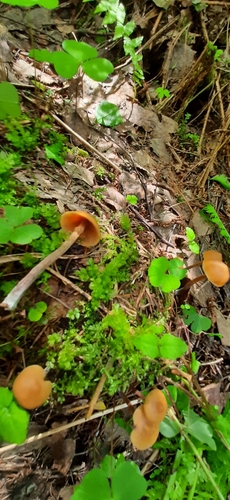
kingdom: Fungi
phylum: Basidiomycota
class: Agaricomycetes
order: Agaricales
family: Strophariaceae
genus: Pholiota
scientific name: Pholiota lignicola
